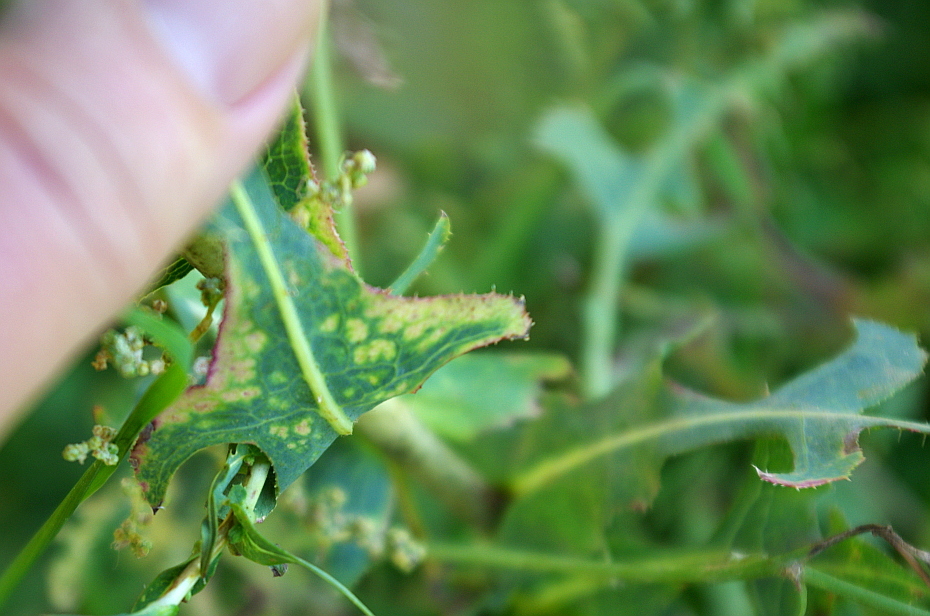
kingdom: Plantae
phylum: Tracheophyta
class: Magnoliopsida
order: Asterales
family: Asteraceae
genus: Lactuca
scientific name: Lactuca serriola
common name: Prickly lettuce
